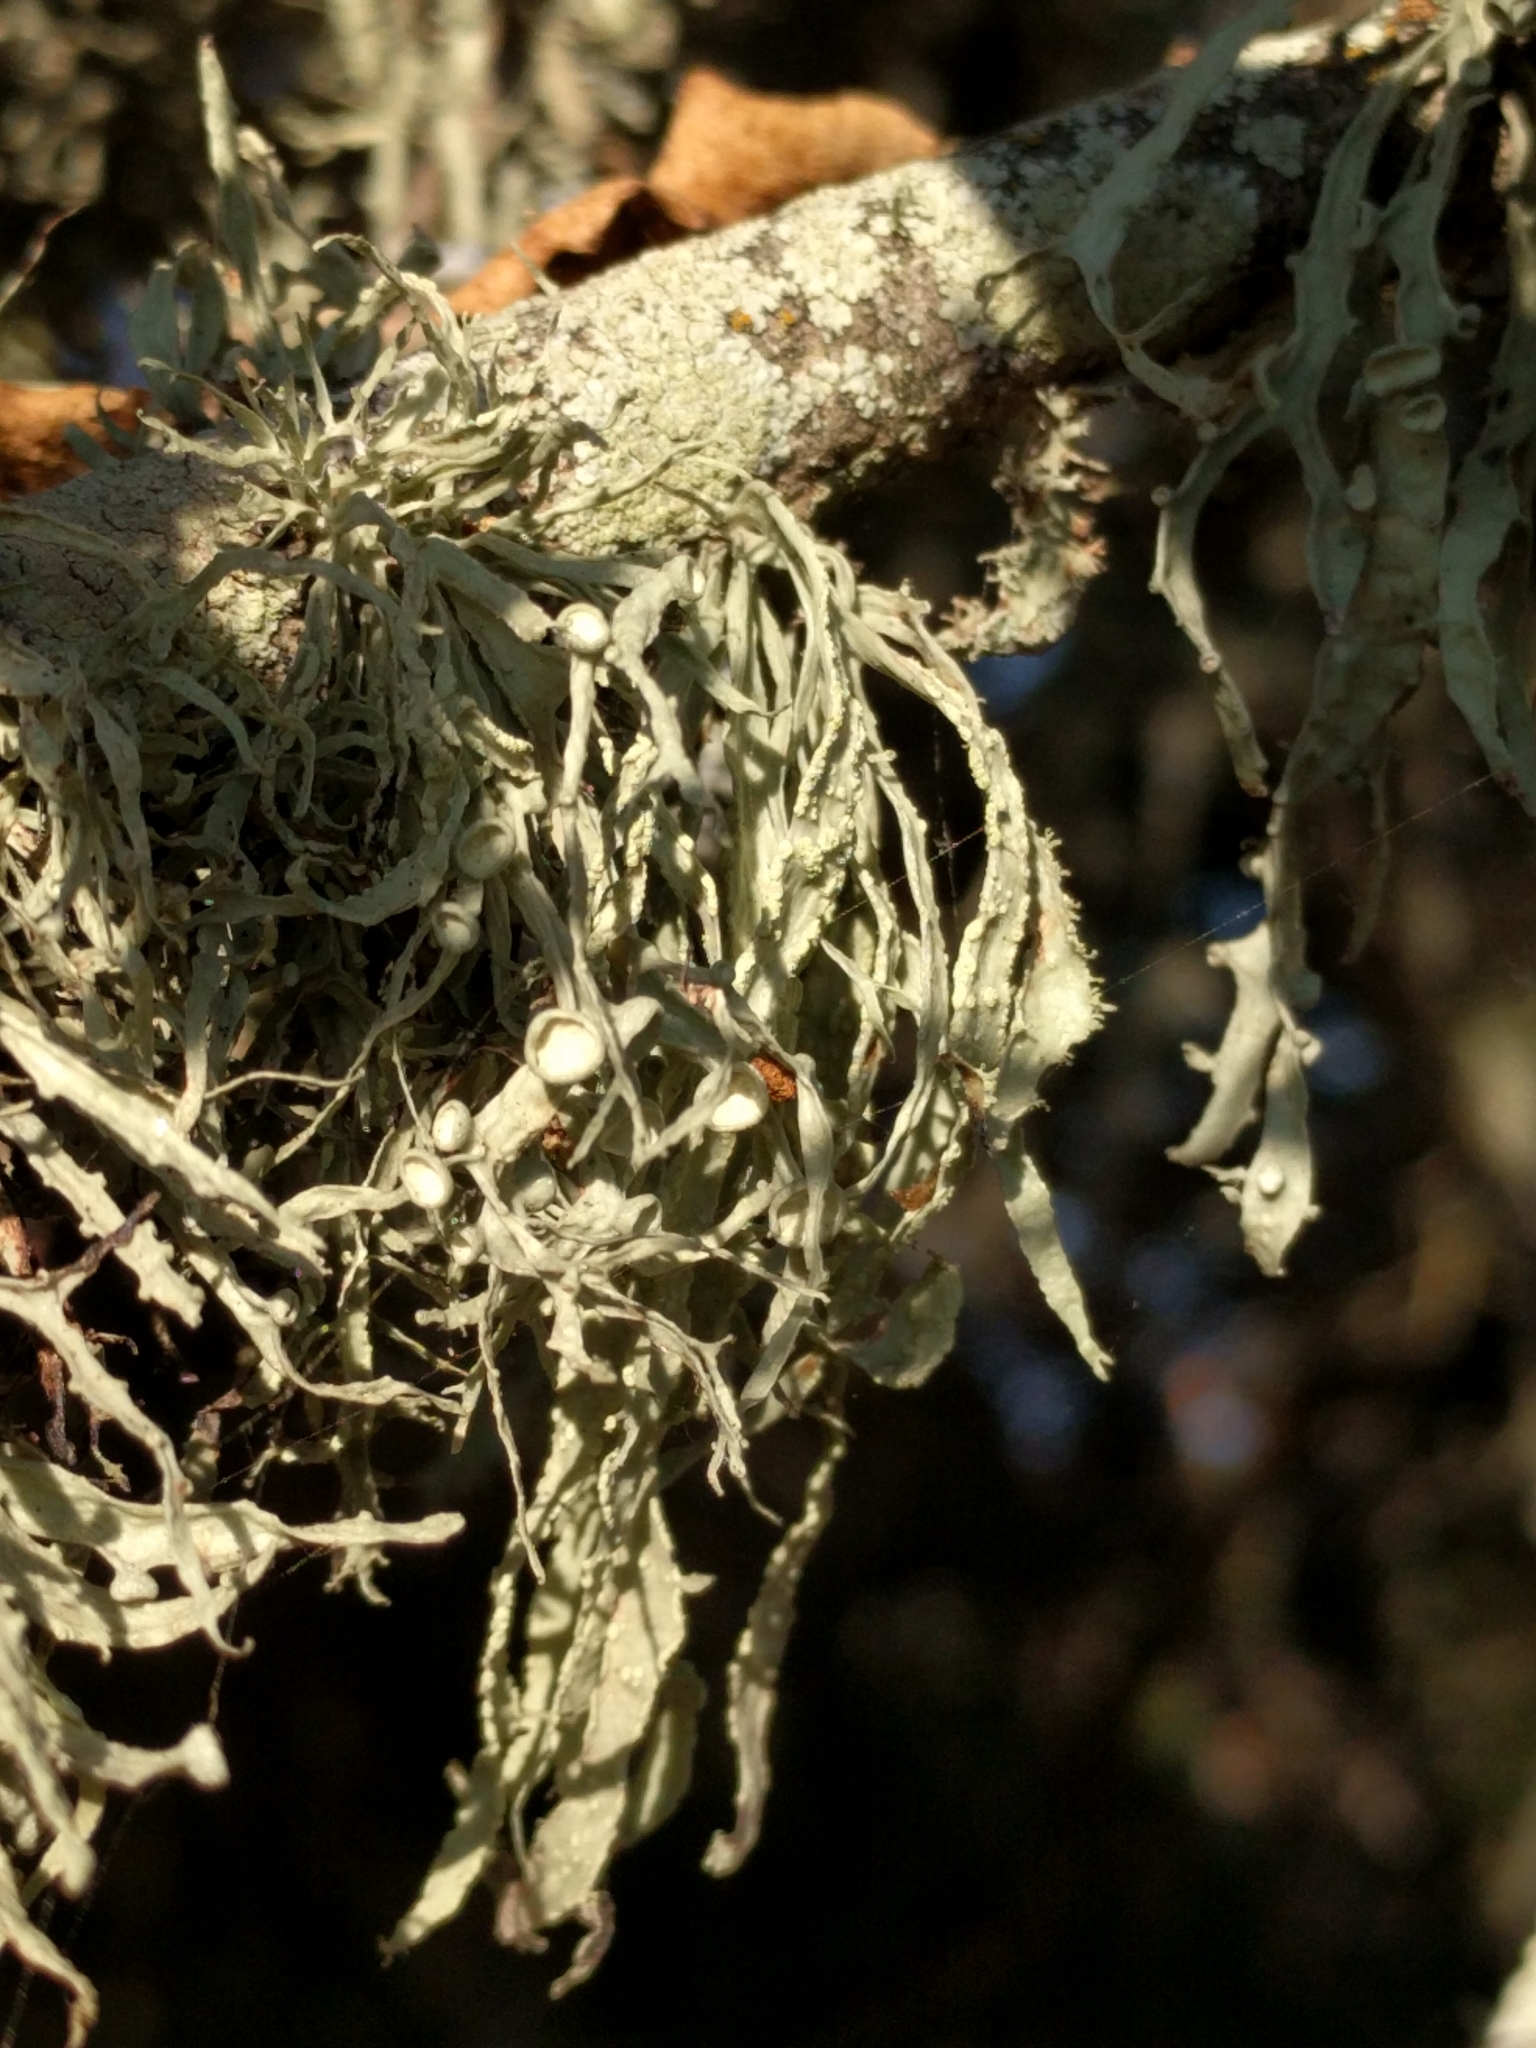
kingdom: Fungi
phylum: Ascomycota
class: Lecanoromycetes
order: Lecanorales
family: Ramalinaceae
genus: Ramalina
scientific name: Ramalina leptocarpha
